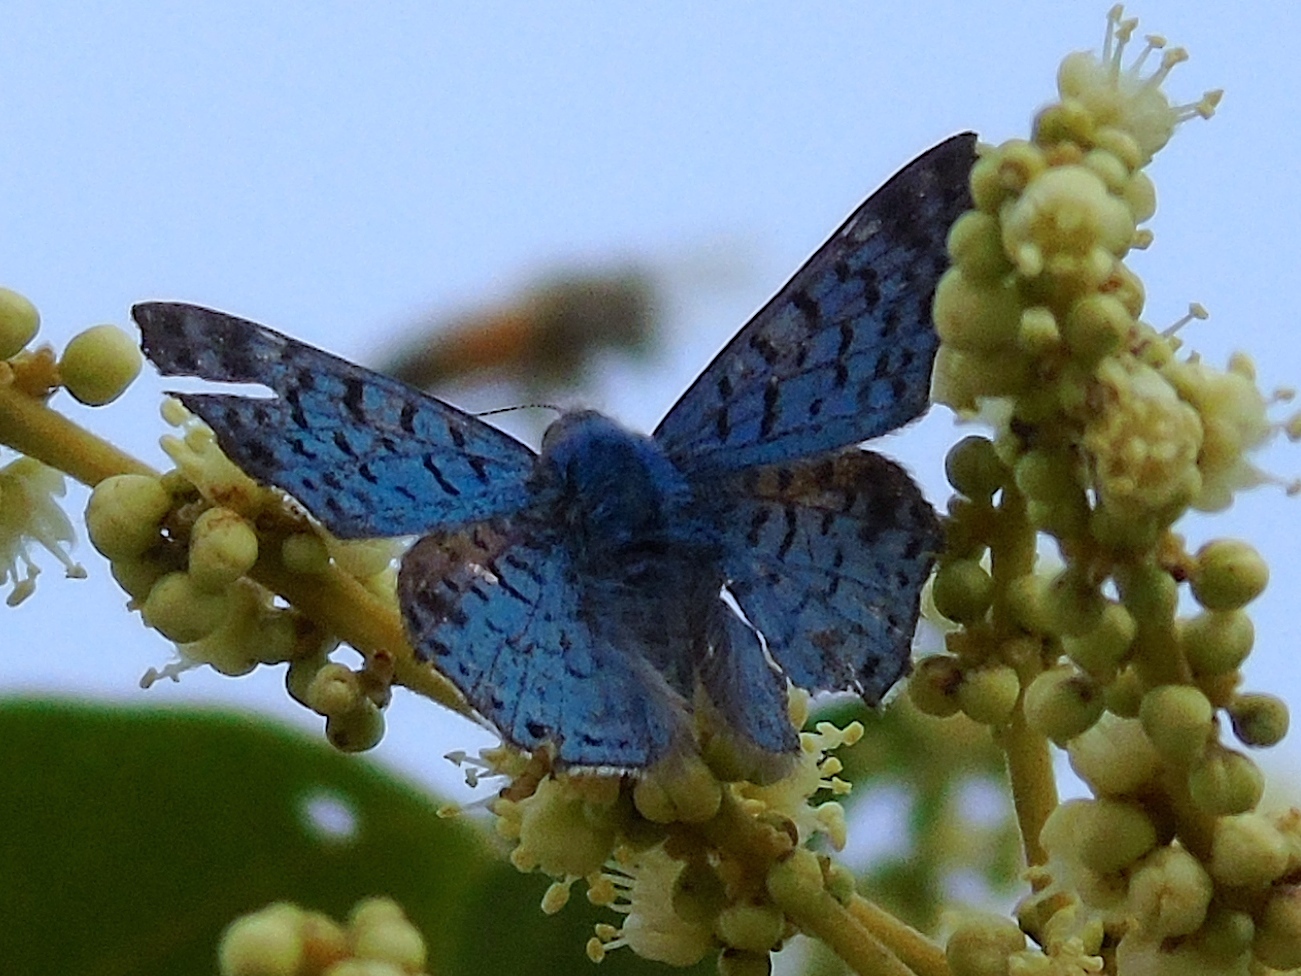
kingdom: Animalia
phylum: Arthropoda
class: Insecta
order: Lepidoptera
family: Riodinidae
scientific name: Riodinidae
